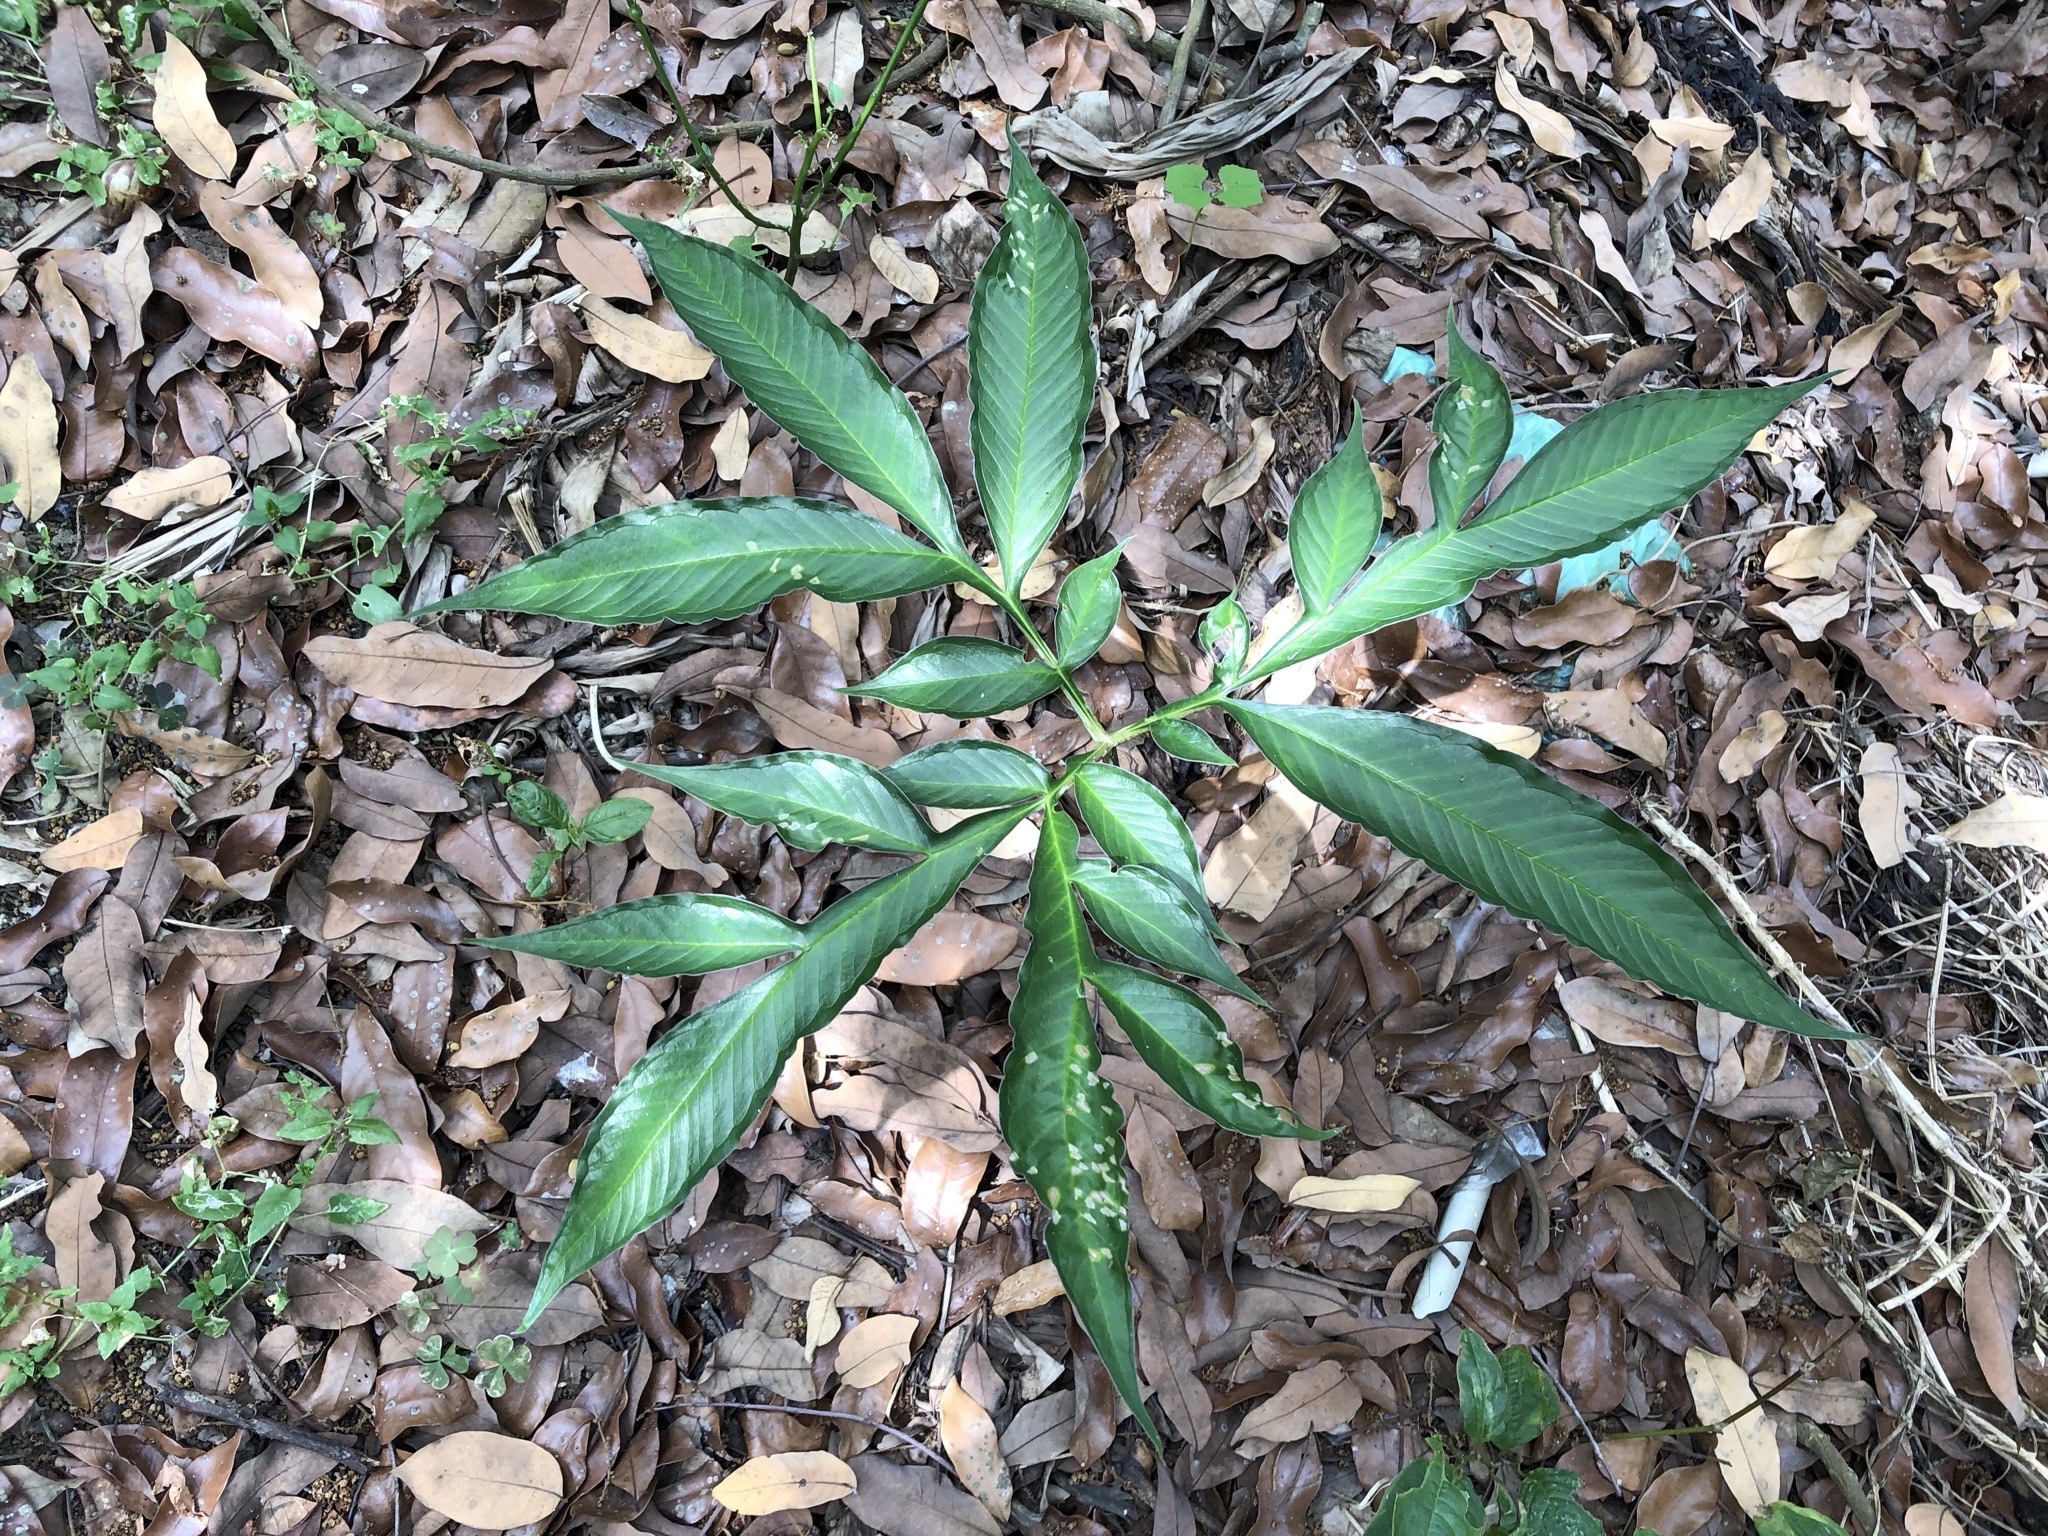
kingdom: Plantae
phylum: Tracheophyta
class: Liliopsida
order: Alismatales
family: Araceae
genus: Amorphophallus
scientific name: Amorphophallus kiusianus
